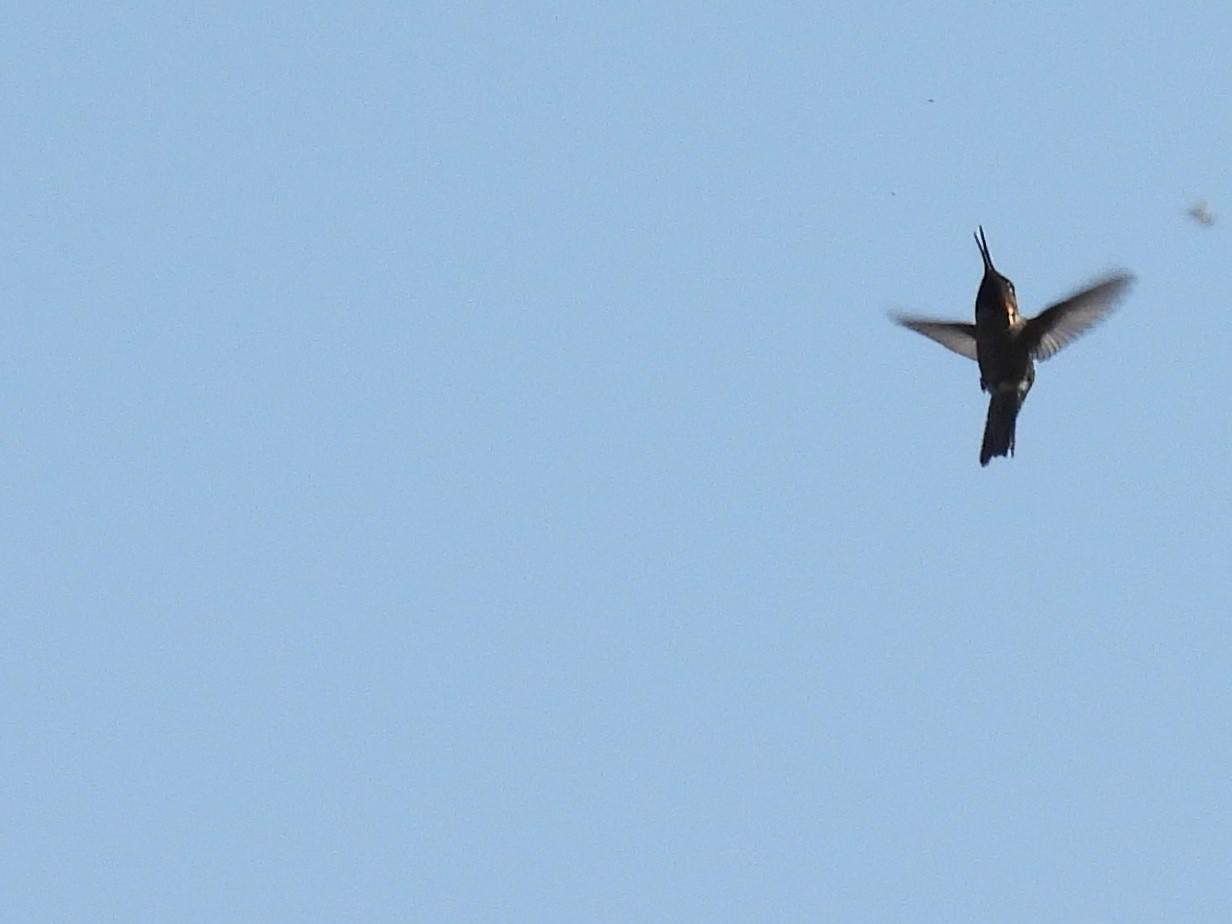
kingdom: Animalia
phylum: Chordata
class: Aves
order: Apodiformes
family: Trochilidae
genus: Calypte
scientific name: Calypte anna
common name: Anna's hummingbird
